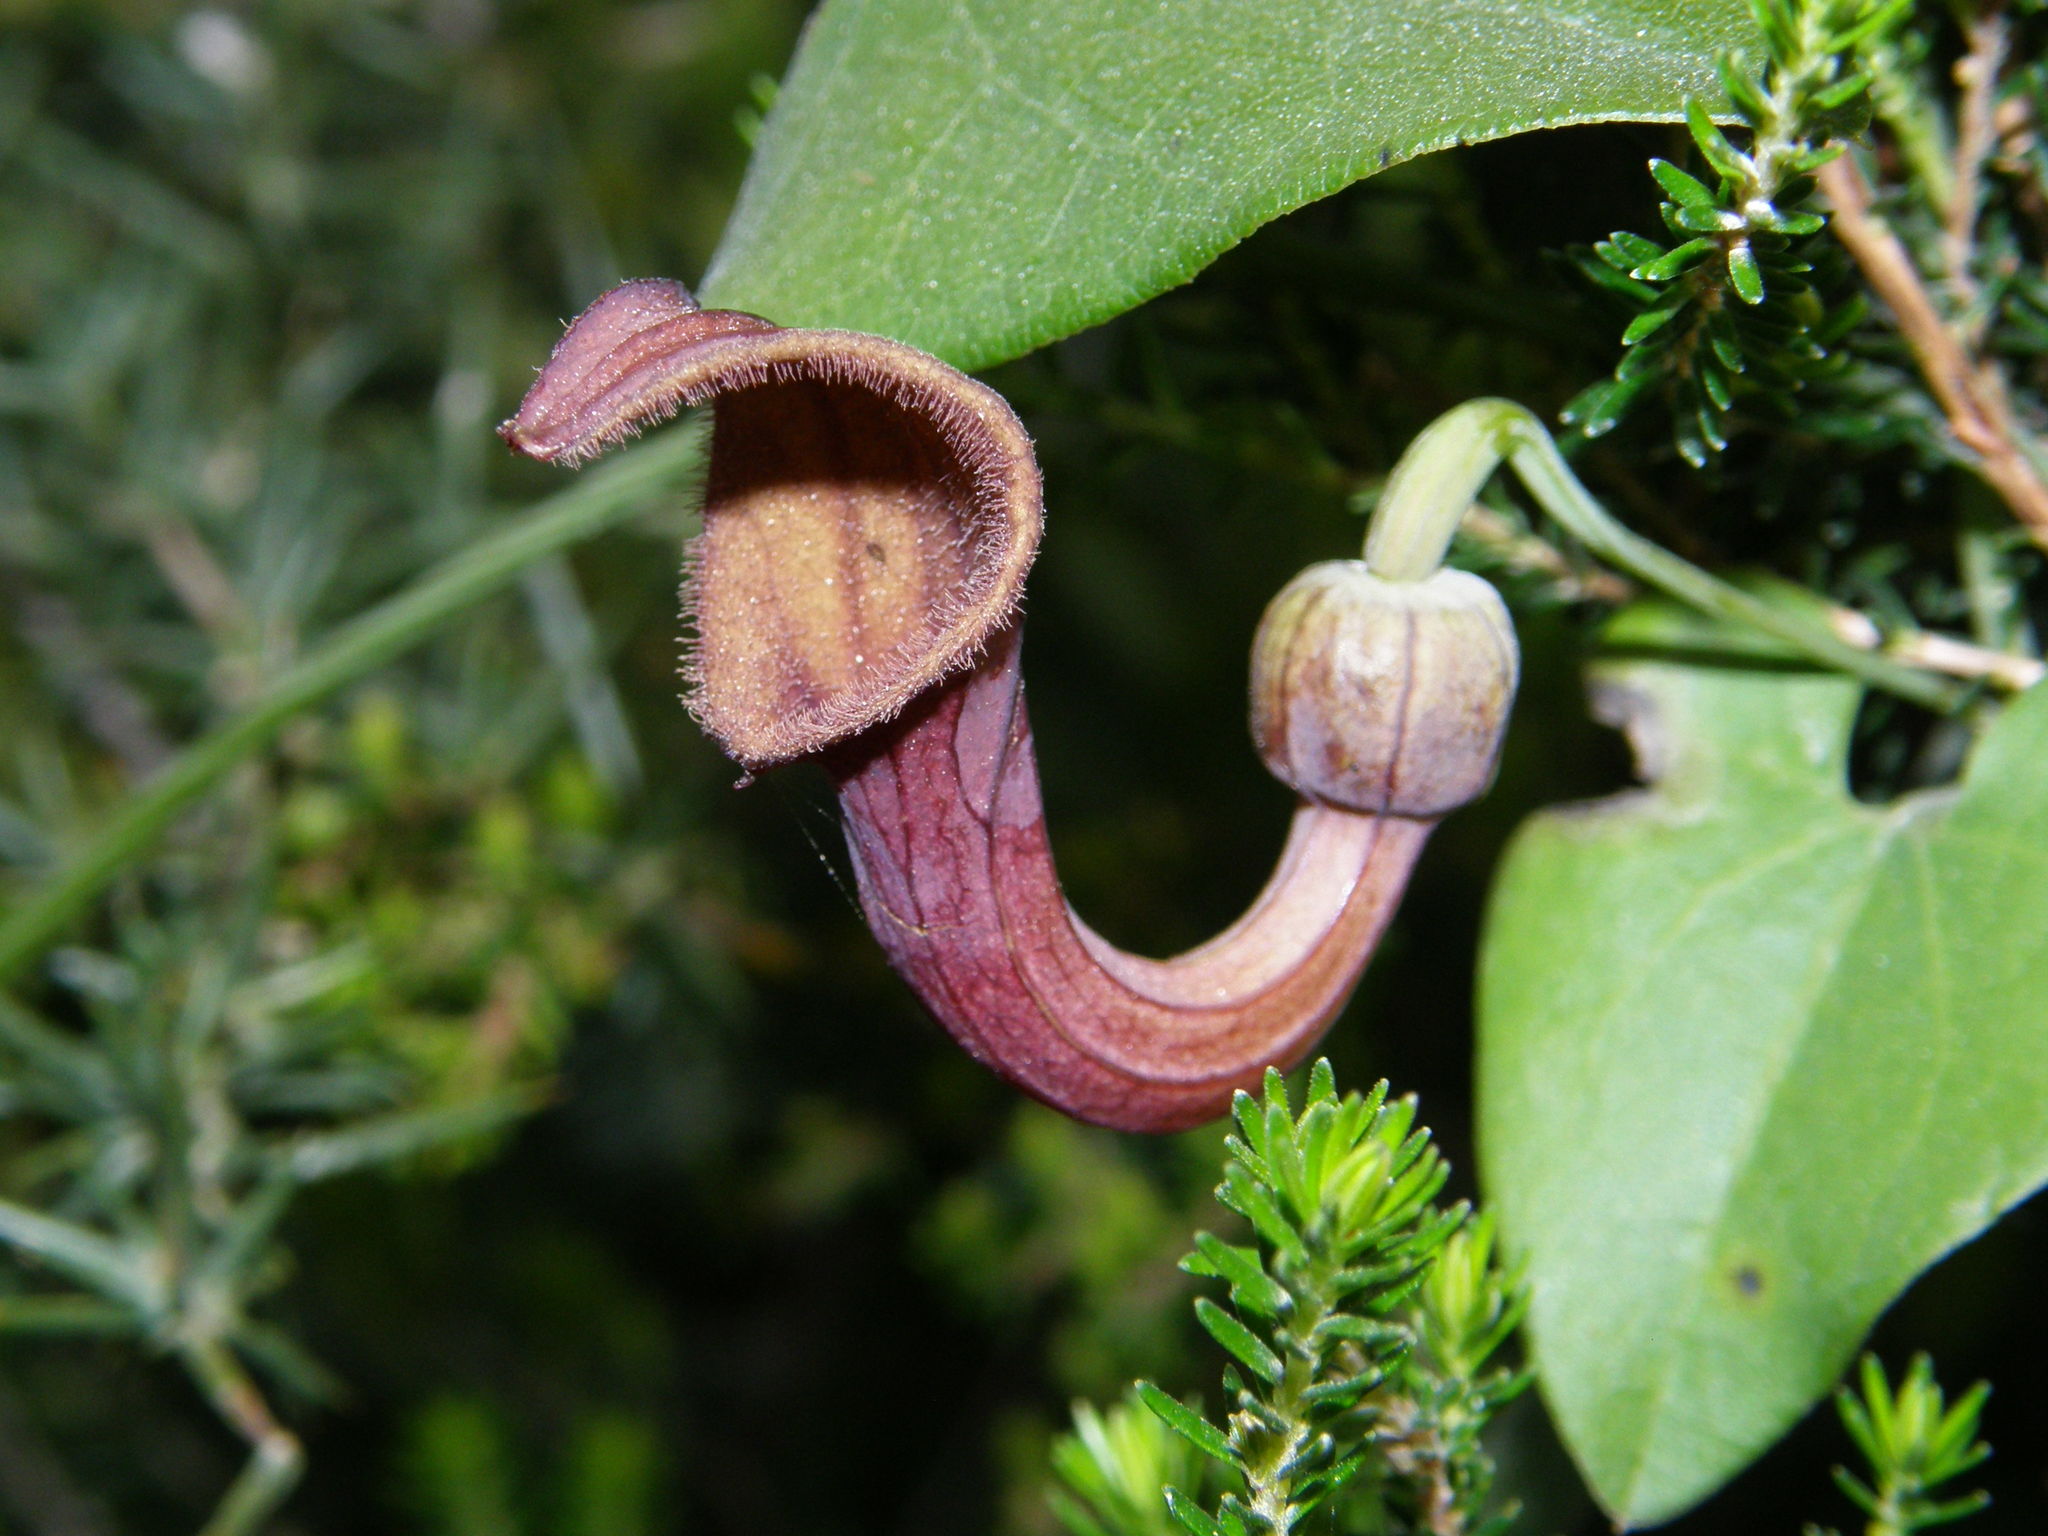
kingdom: Plantae
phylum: Tracheophyta
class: Magnoliopsida
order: Piperales
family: Aristolochiaceae
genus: Aristolochia
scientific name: Aristolochia baetica
